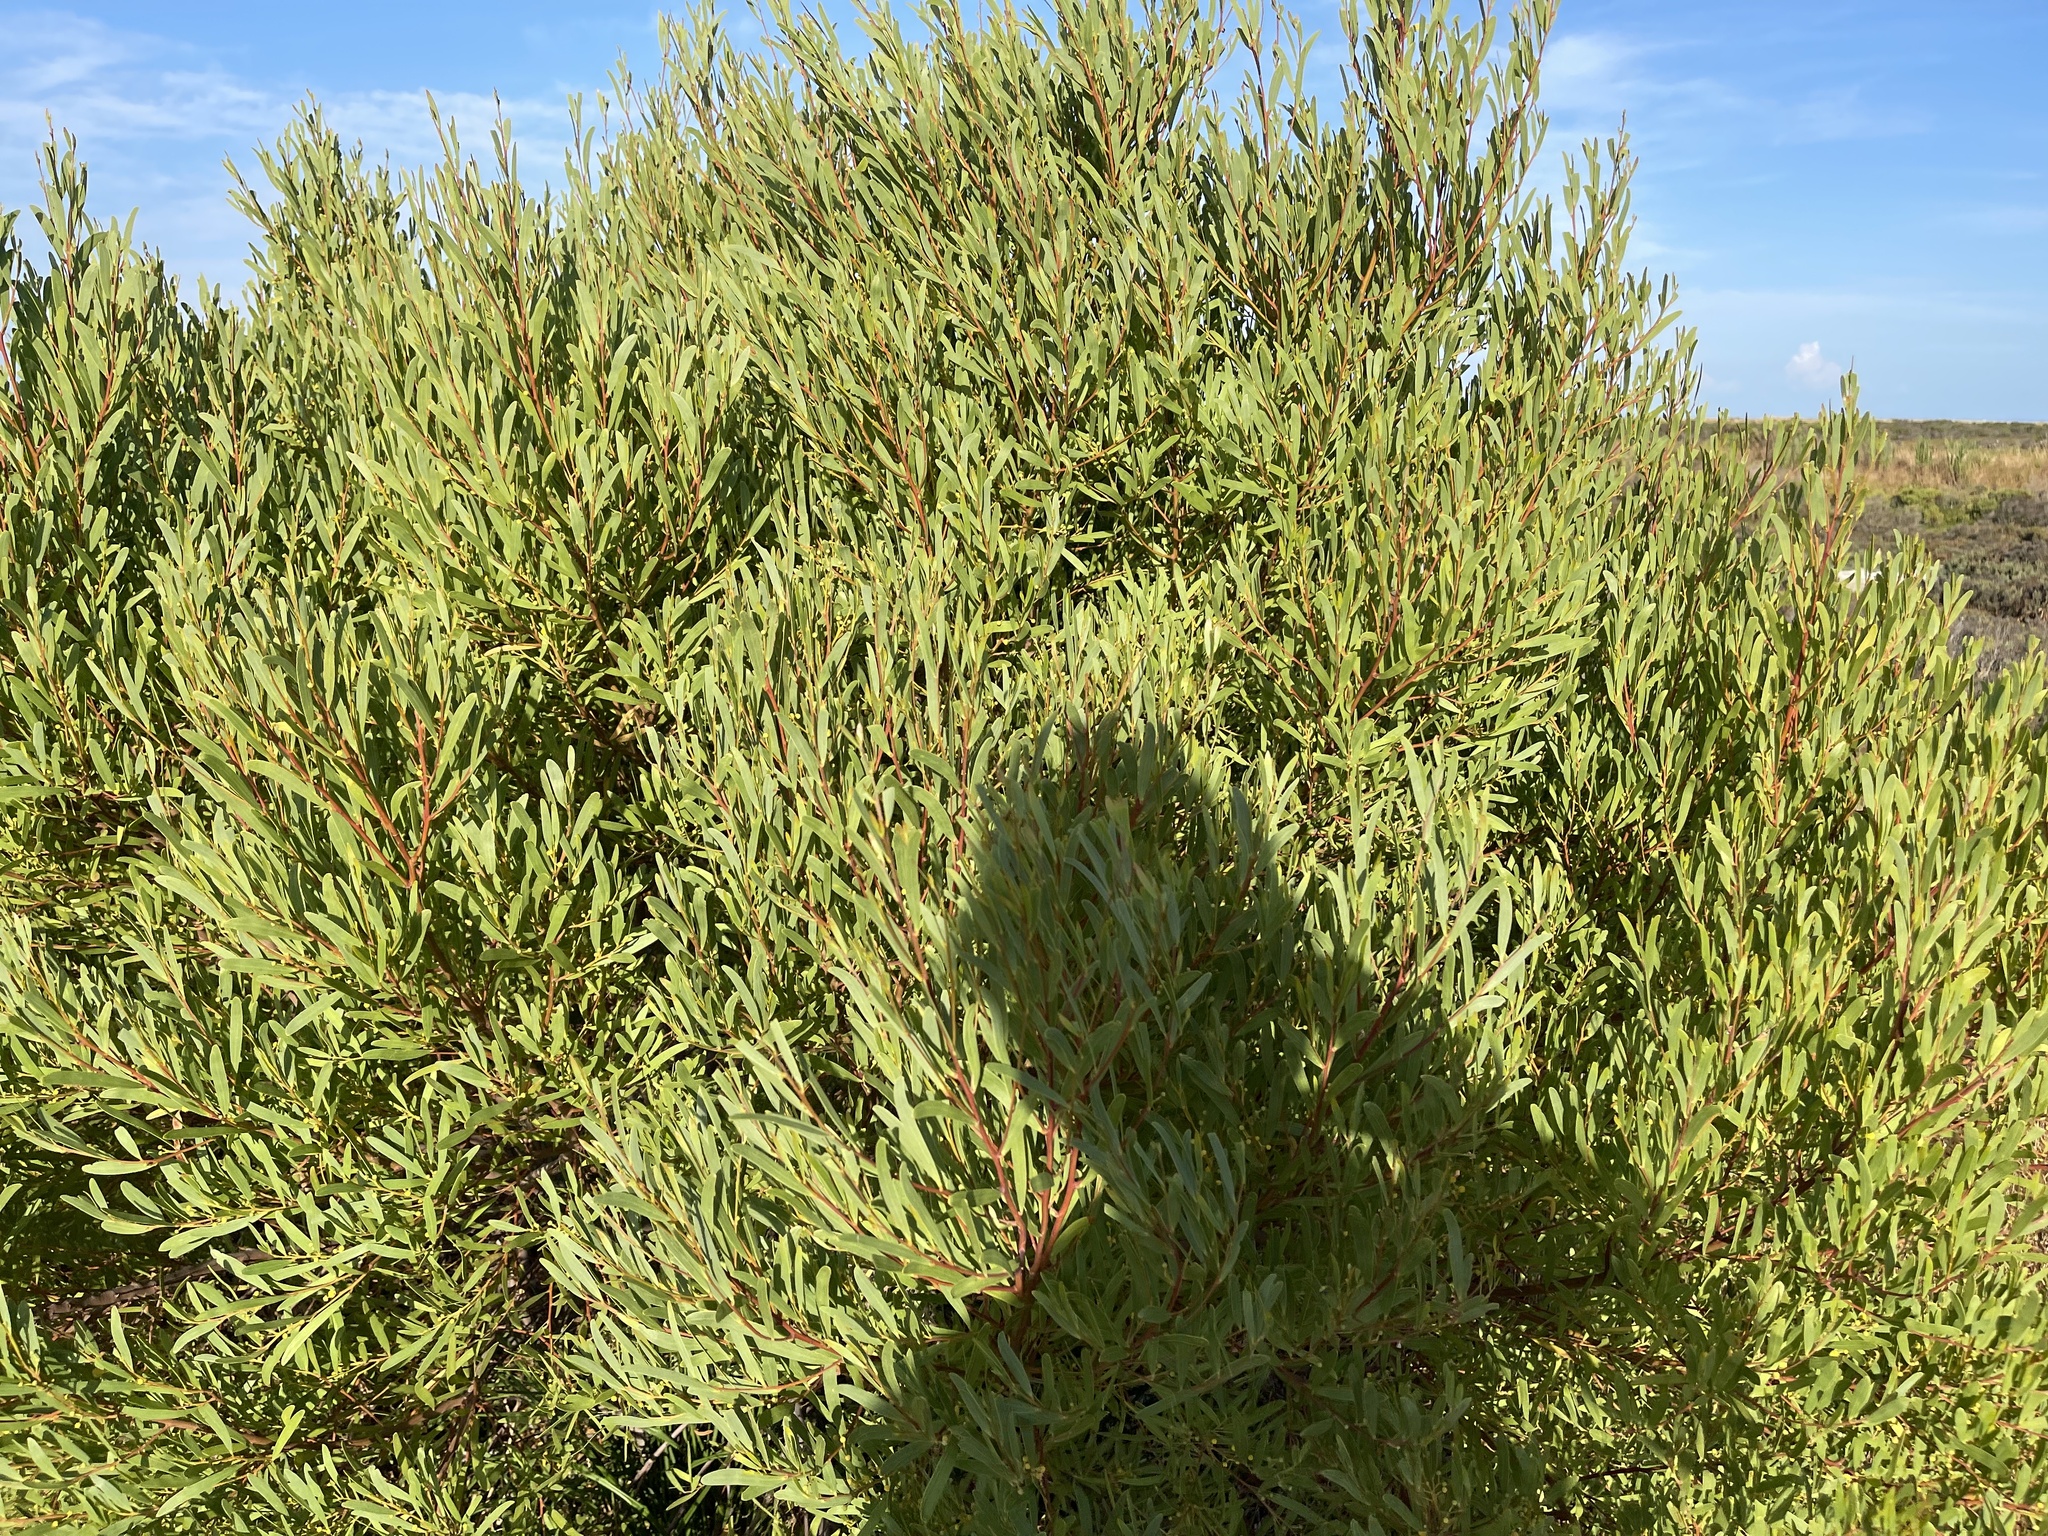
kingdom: Plantae
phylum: Tracheophyta
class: Magnoliopsida
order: Fabales
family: Fabaceae
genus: Acacia
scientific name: Acacia cyclops
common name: Coastal wattle
